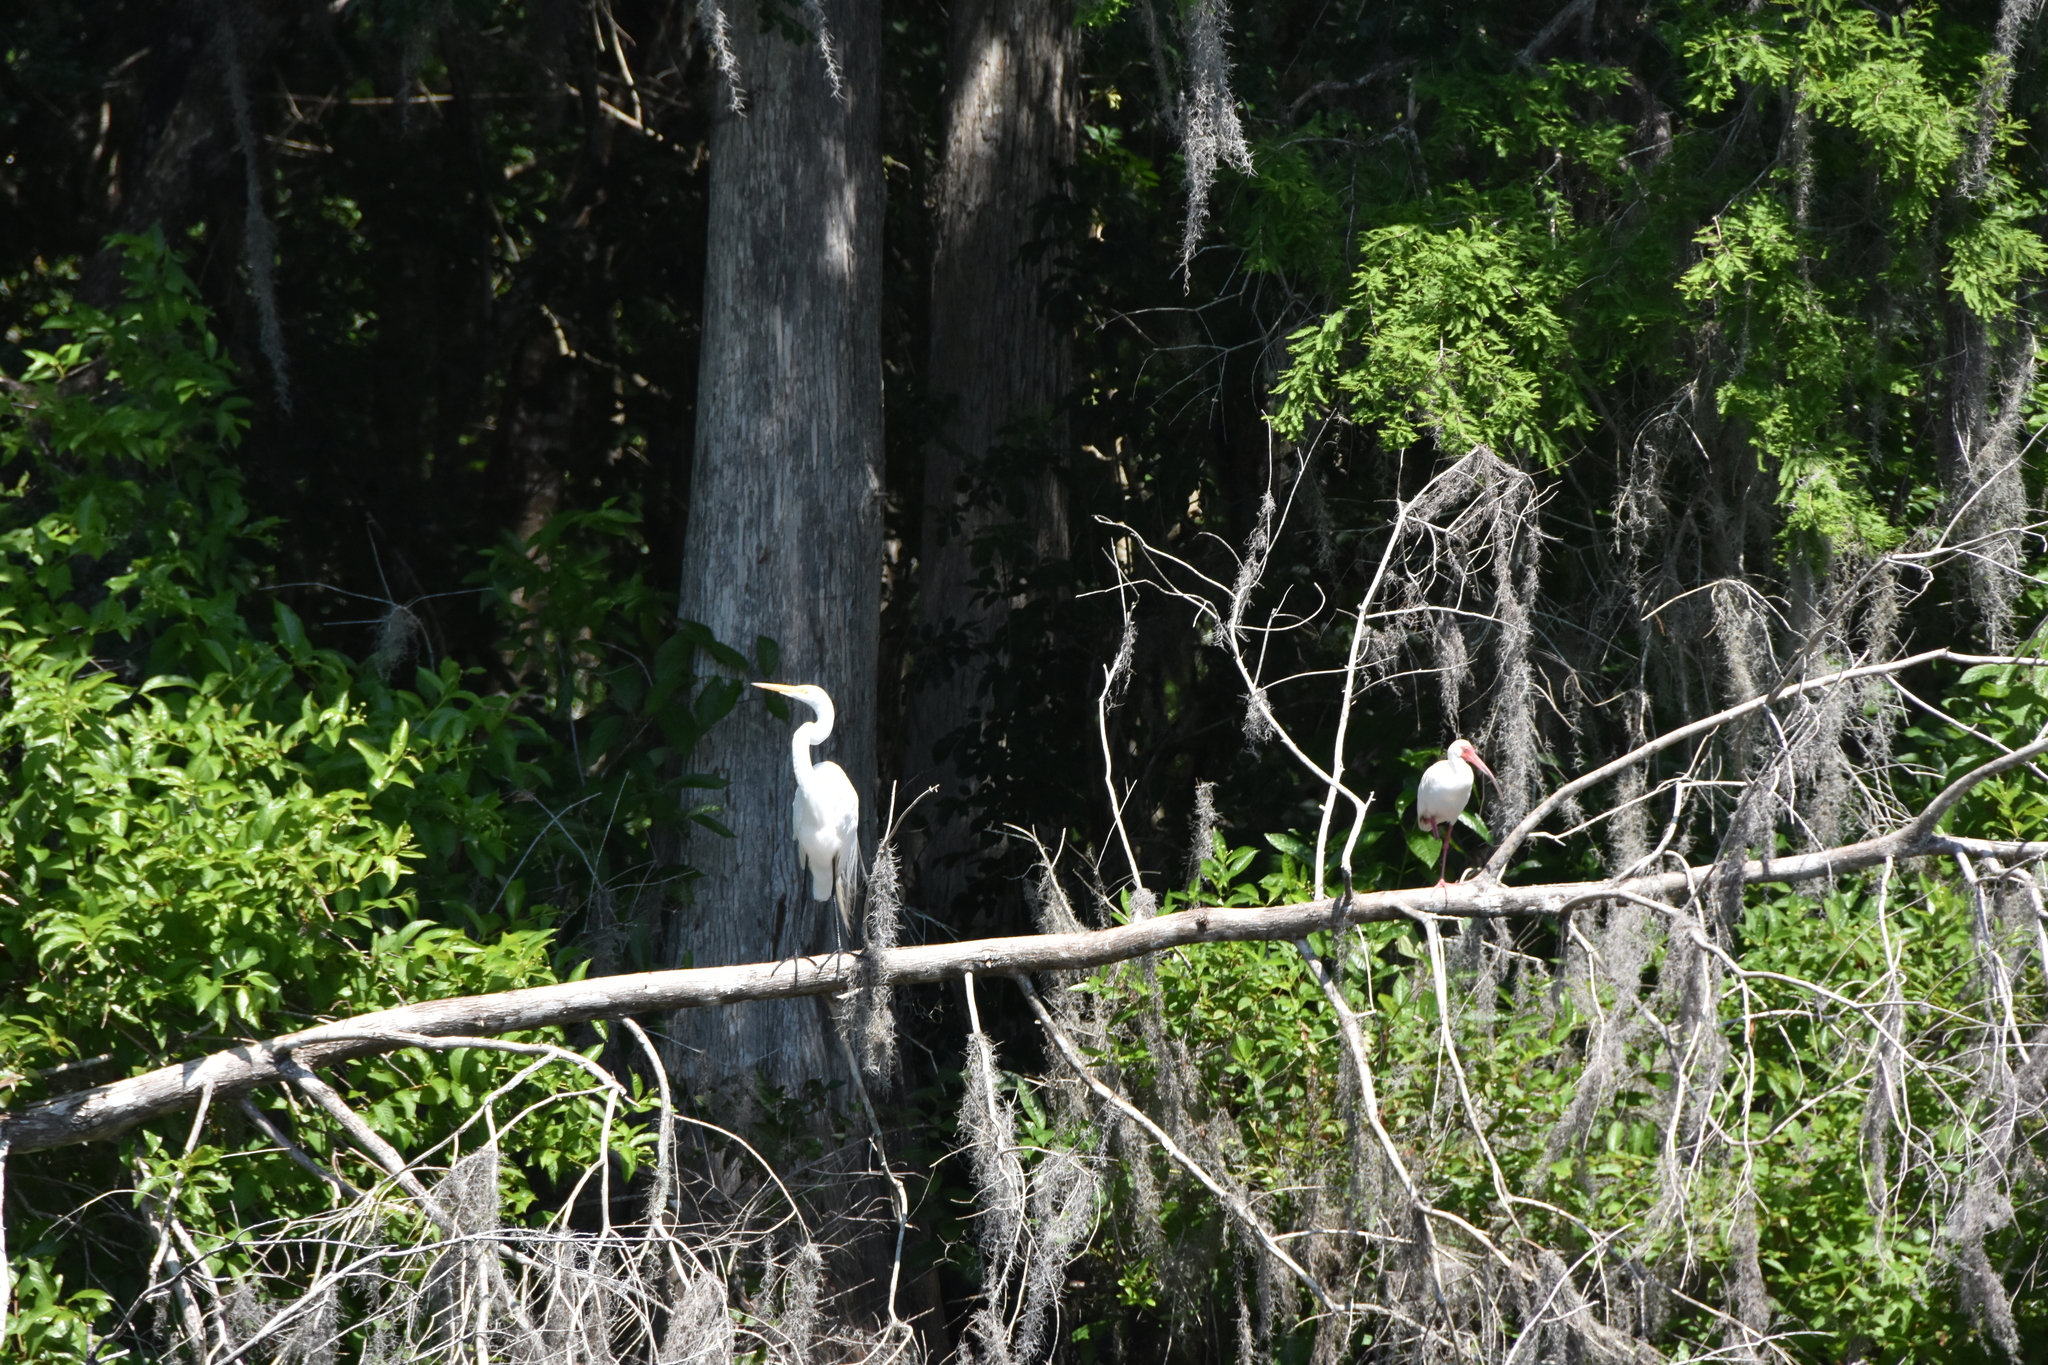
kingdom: Animalia
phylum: Chordata
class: Aves
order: Pelecaniformes
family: Threskiornithidae
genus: Eudocimus
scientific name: Eudocimus albus
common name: White ibis
